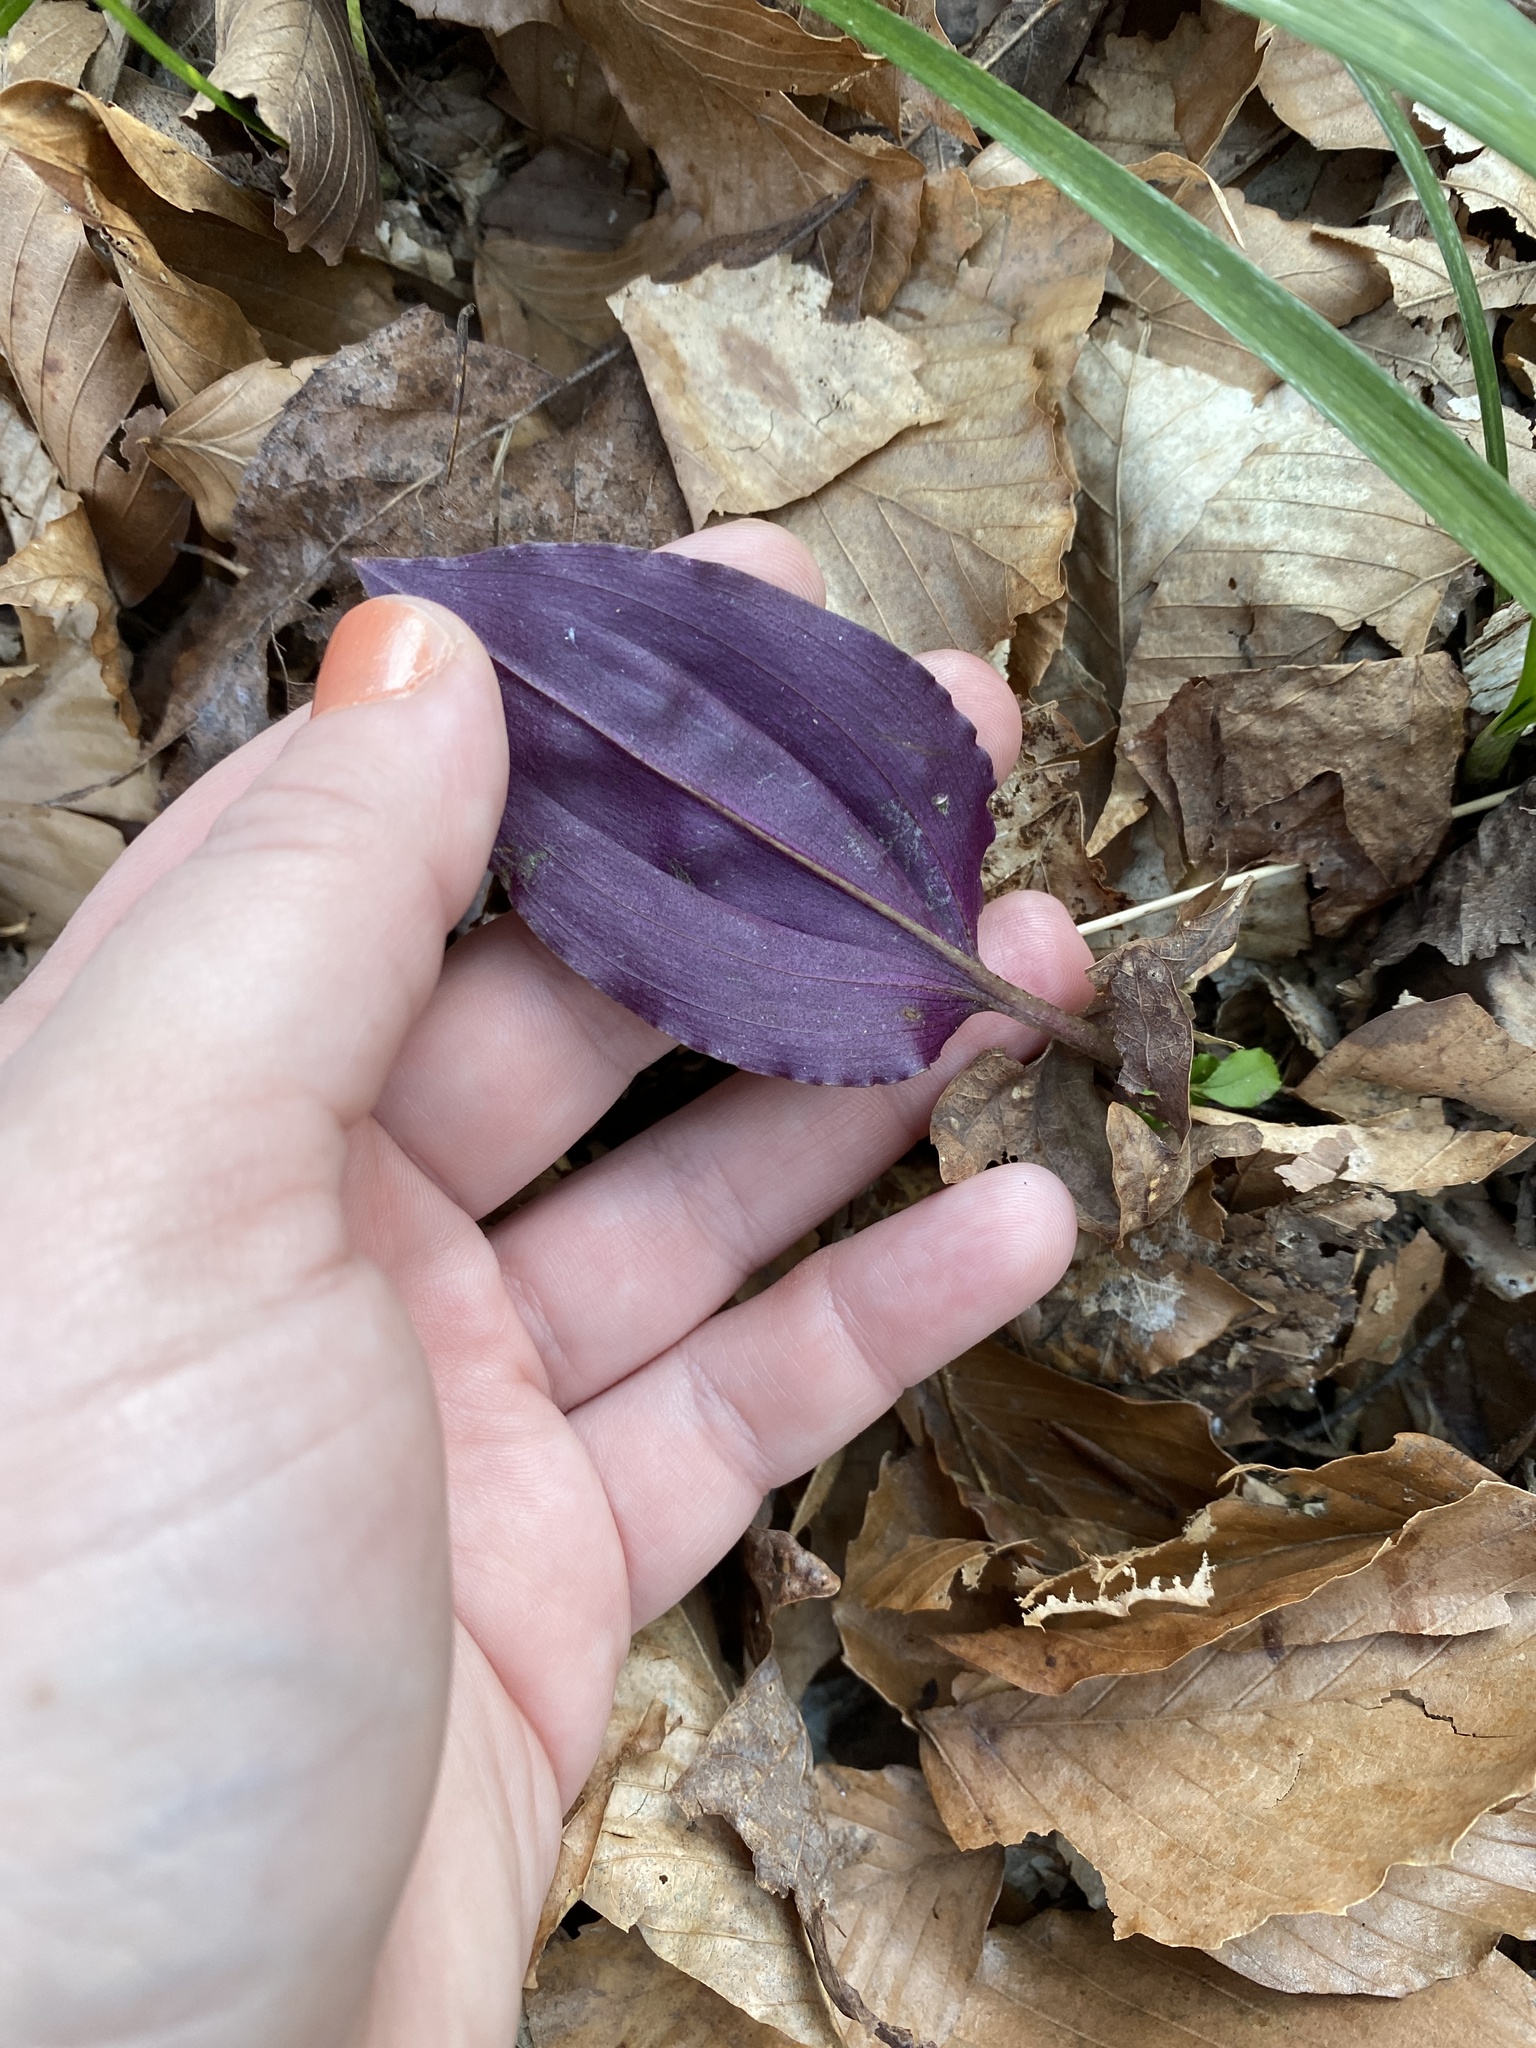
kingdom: Plantae
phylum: Tracheophyta
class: Liliopsida
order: Asparagales
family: Orchidaceae
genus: Tipularia
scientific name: Tipularia discolor
